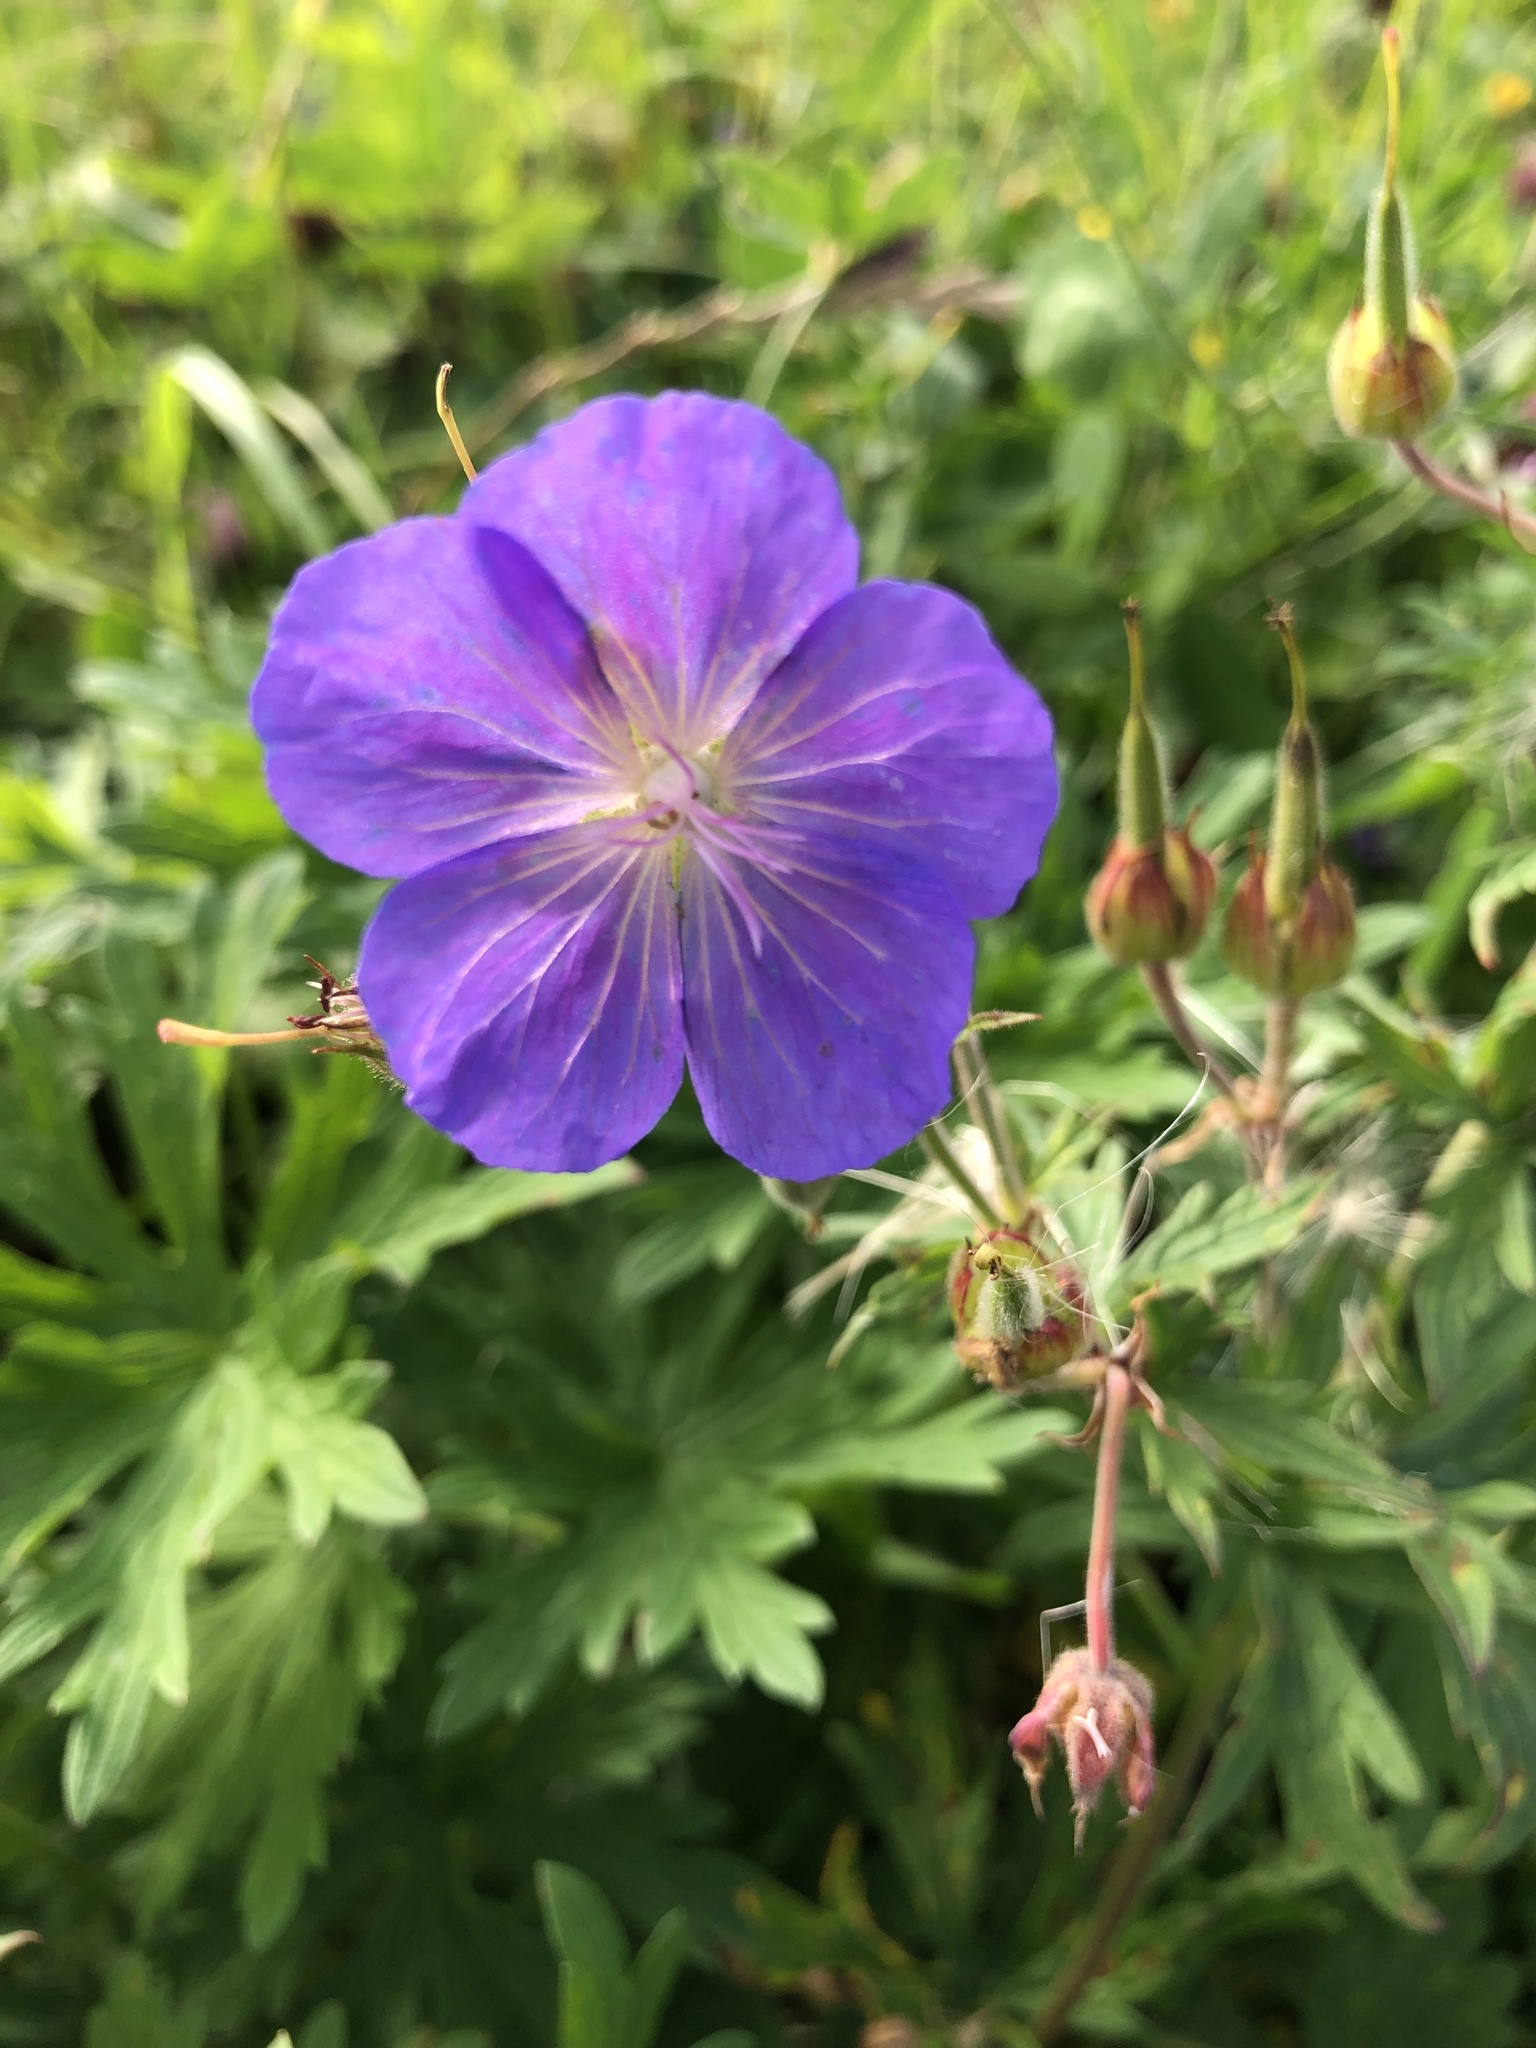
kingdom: Plantae
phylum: Tracheophyta
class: Magnoliopsida
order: Geraniales
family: Geraniaceae
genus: Geranium
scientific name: Geranium pratense
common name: Meadow crane's-bill
